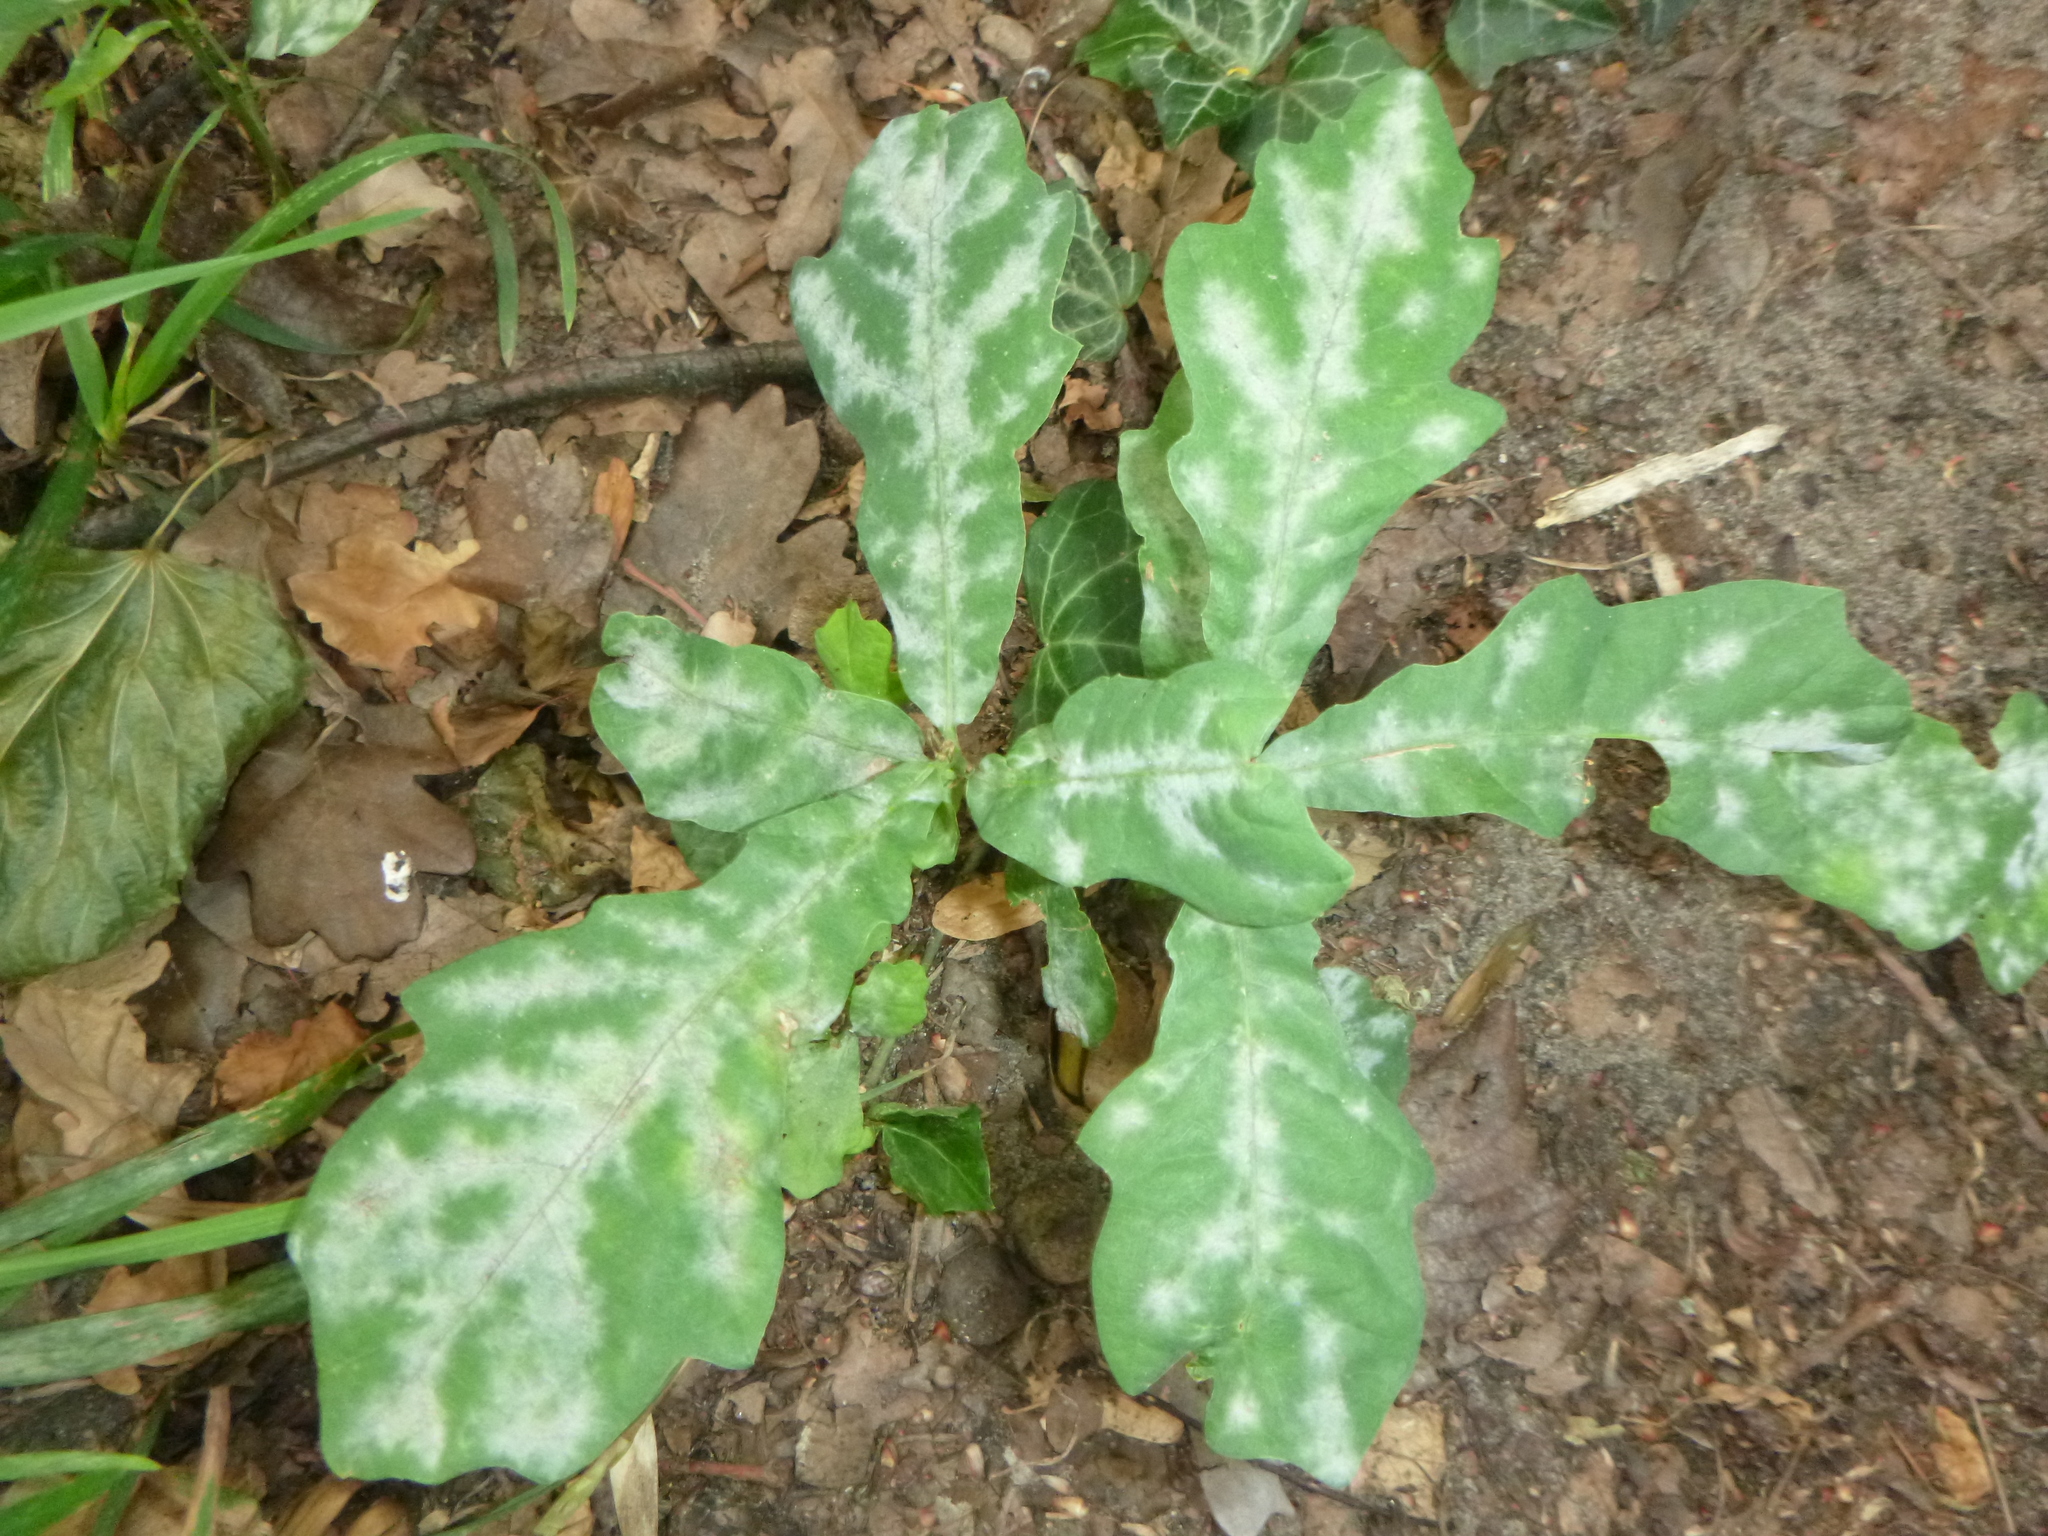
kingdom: Plantae
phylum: Tracheophyta
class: Magnoliopsida
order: Fagales
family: Fagaceae
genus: Quercus
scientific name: Quercus robur
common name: Pedunculate oak
